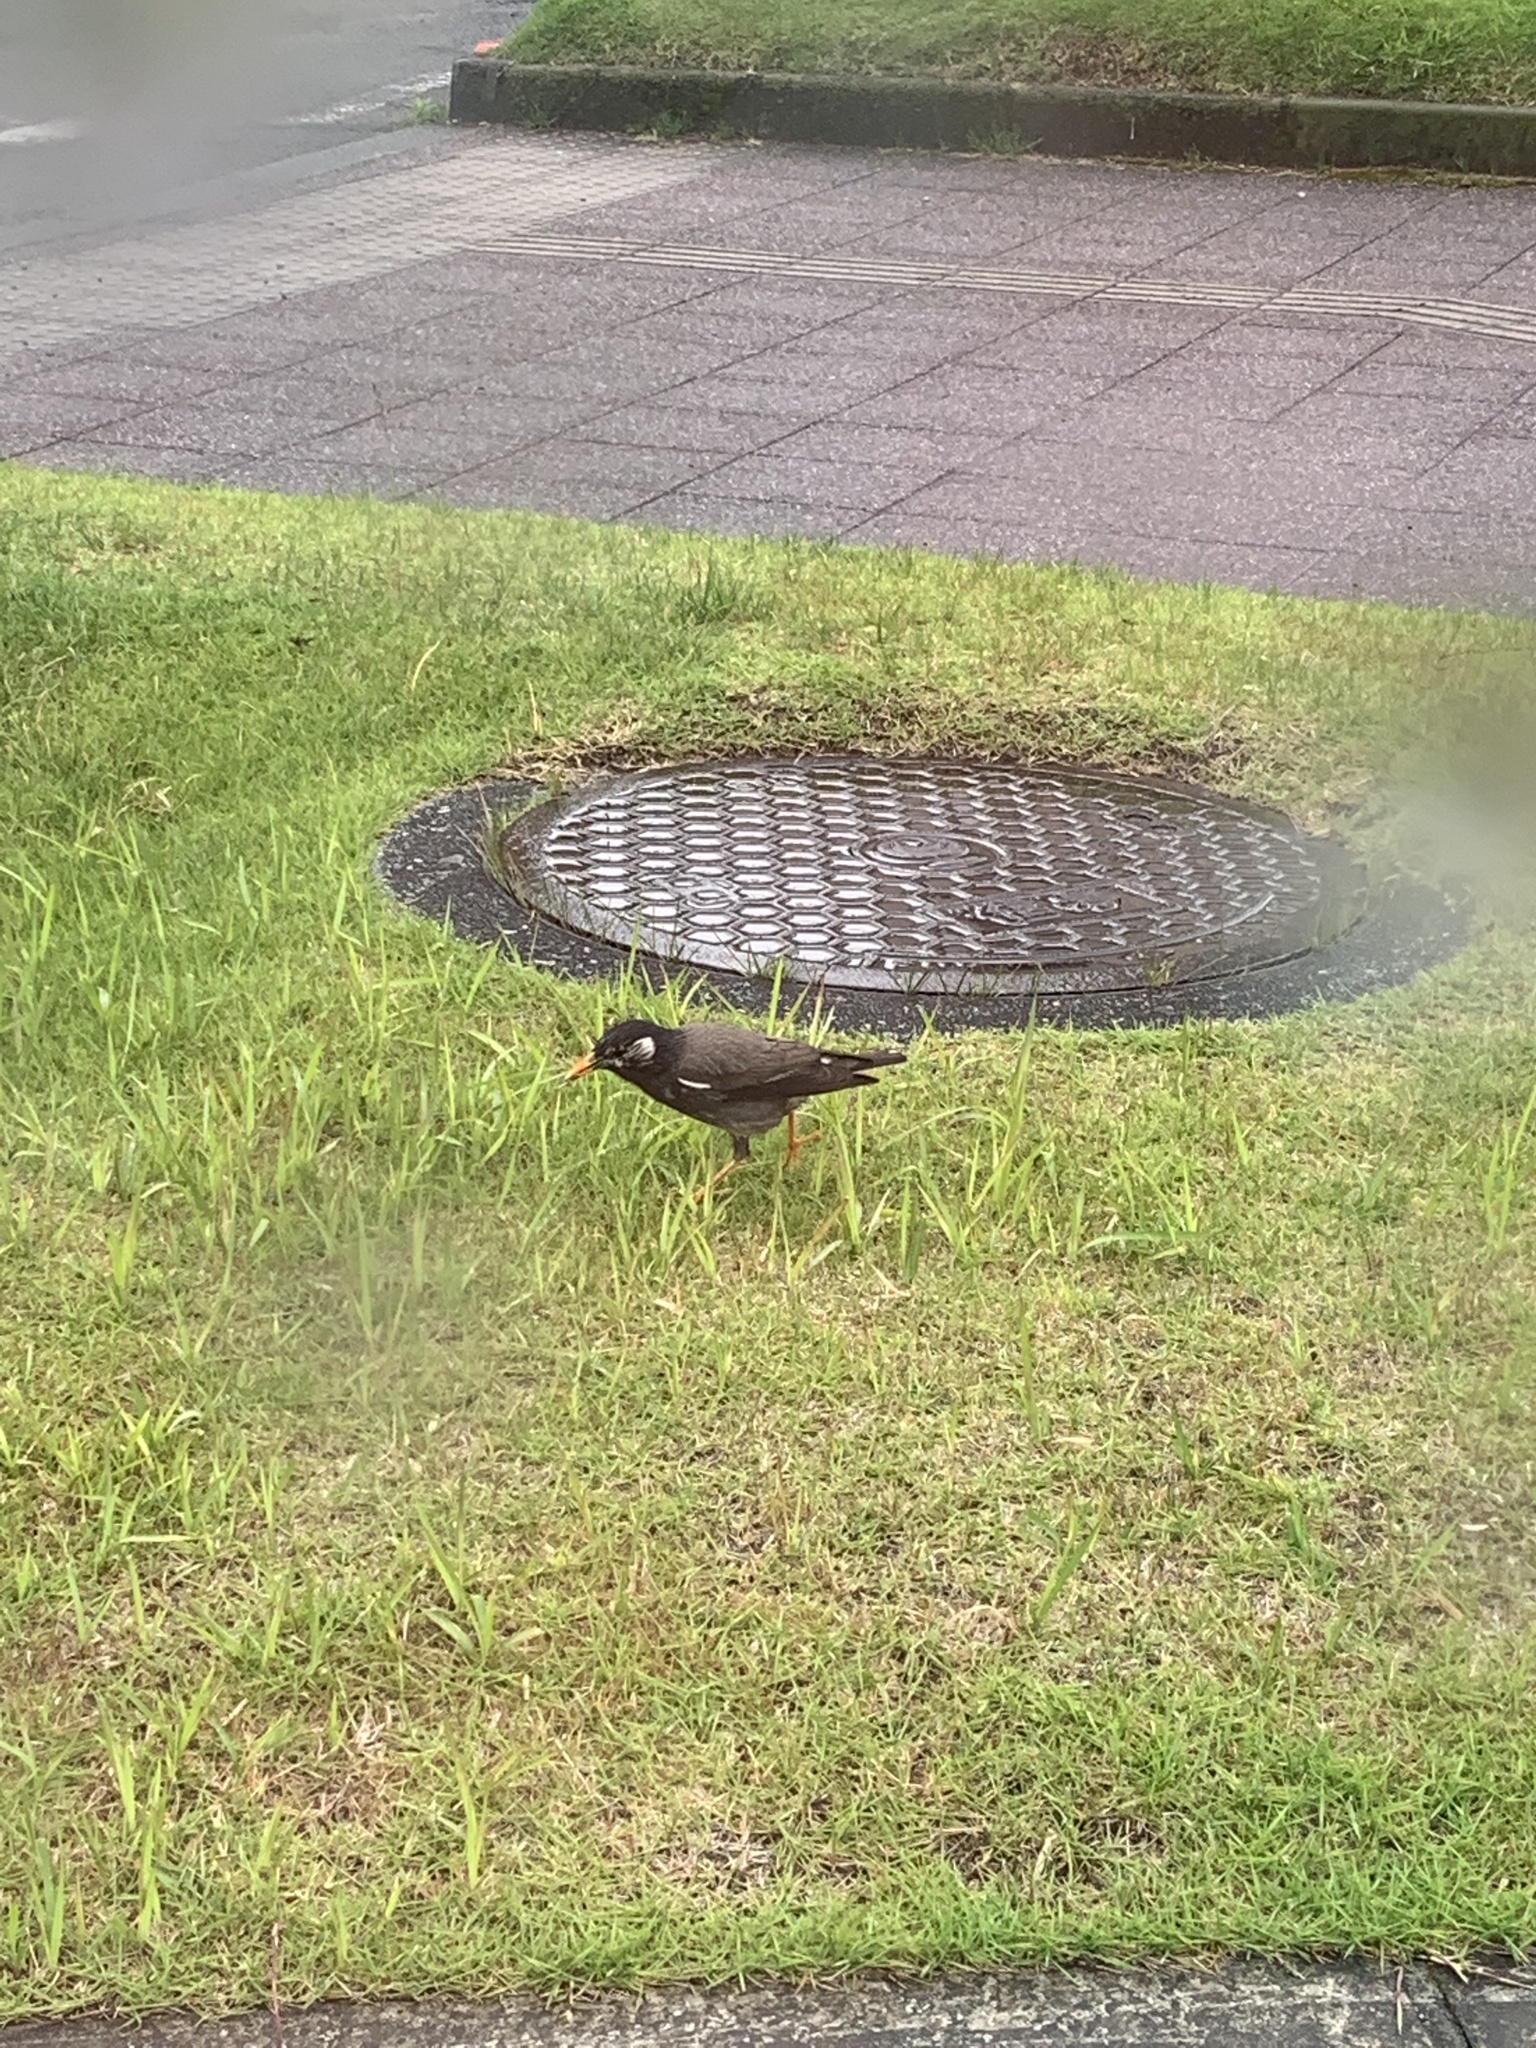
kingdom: Animalia
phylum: Chordata
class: Aves
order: Passeriformes
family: Sturnidae
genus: Spodiopsar
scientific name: Spodiopsar cineraceus
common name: White-cheeked starling
